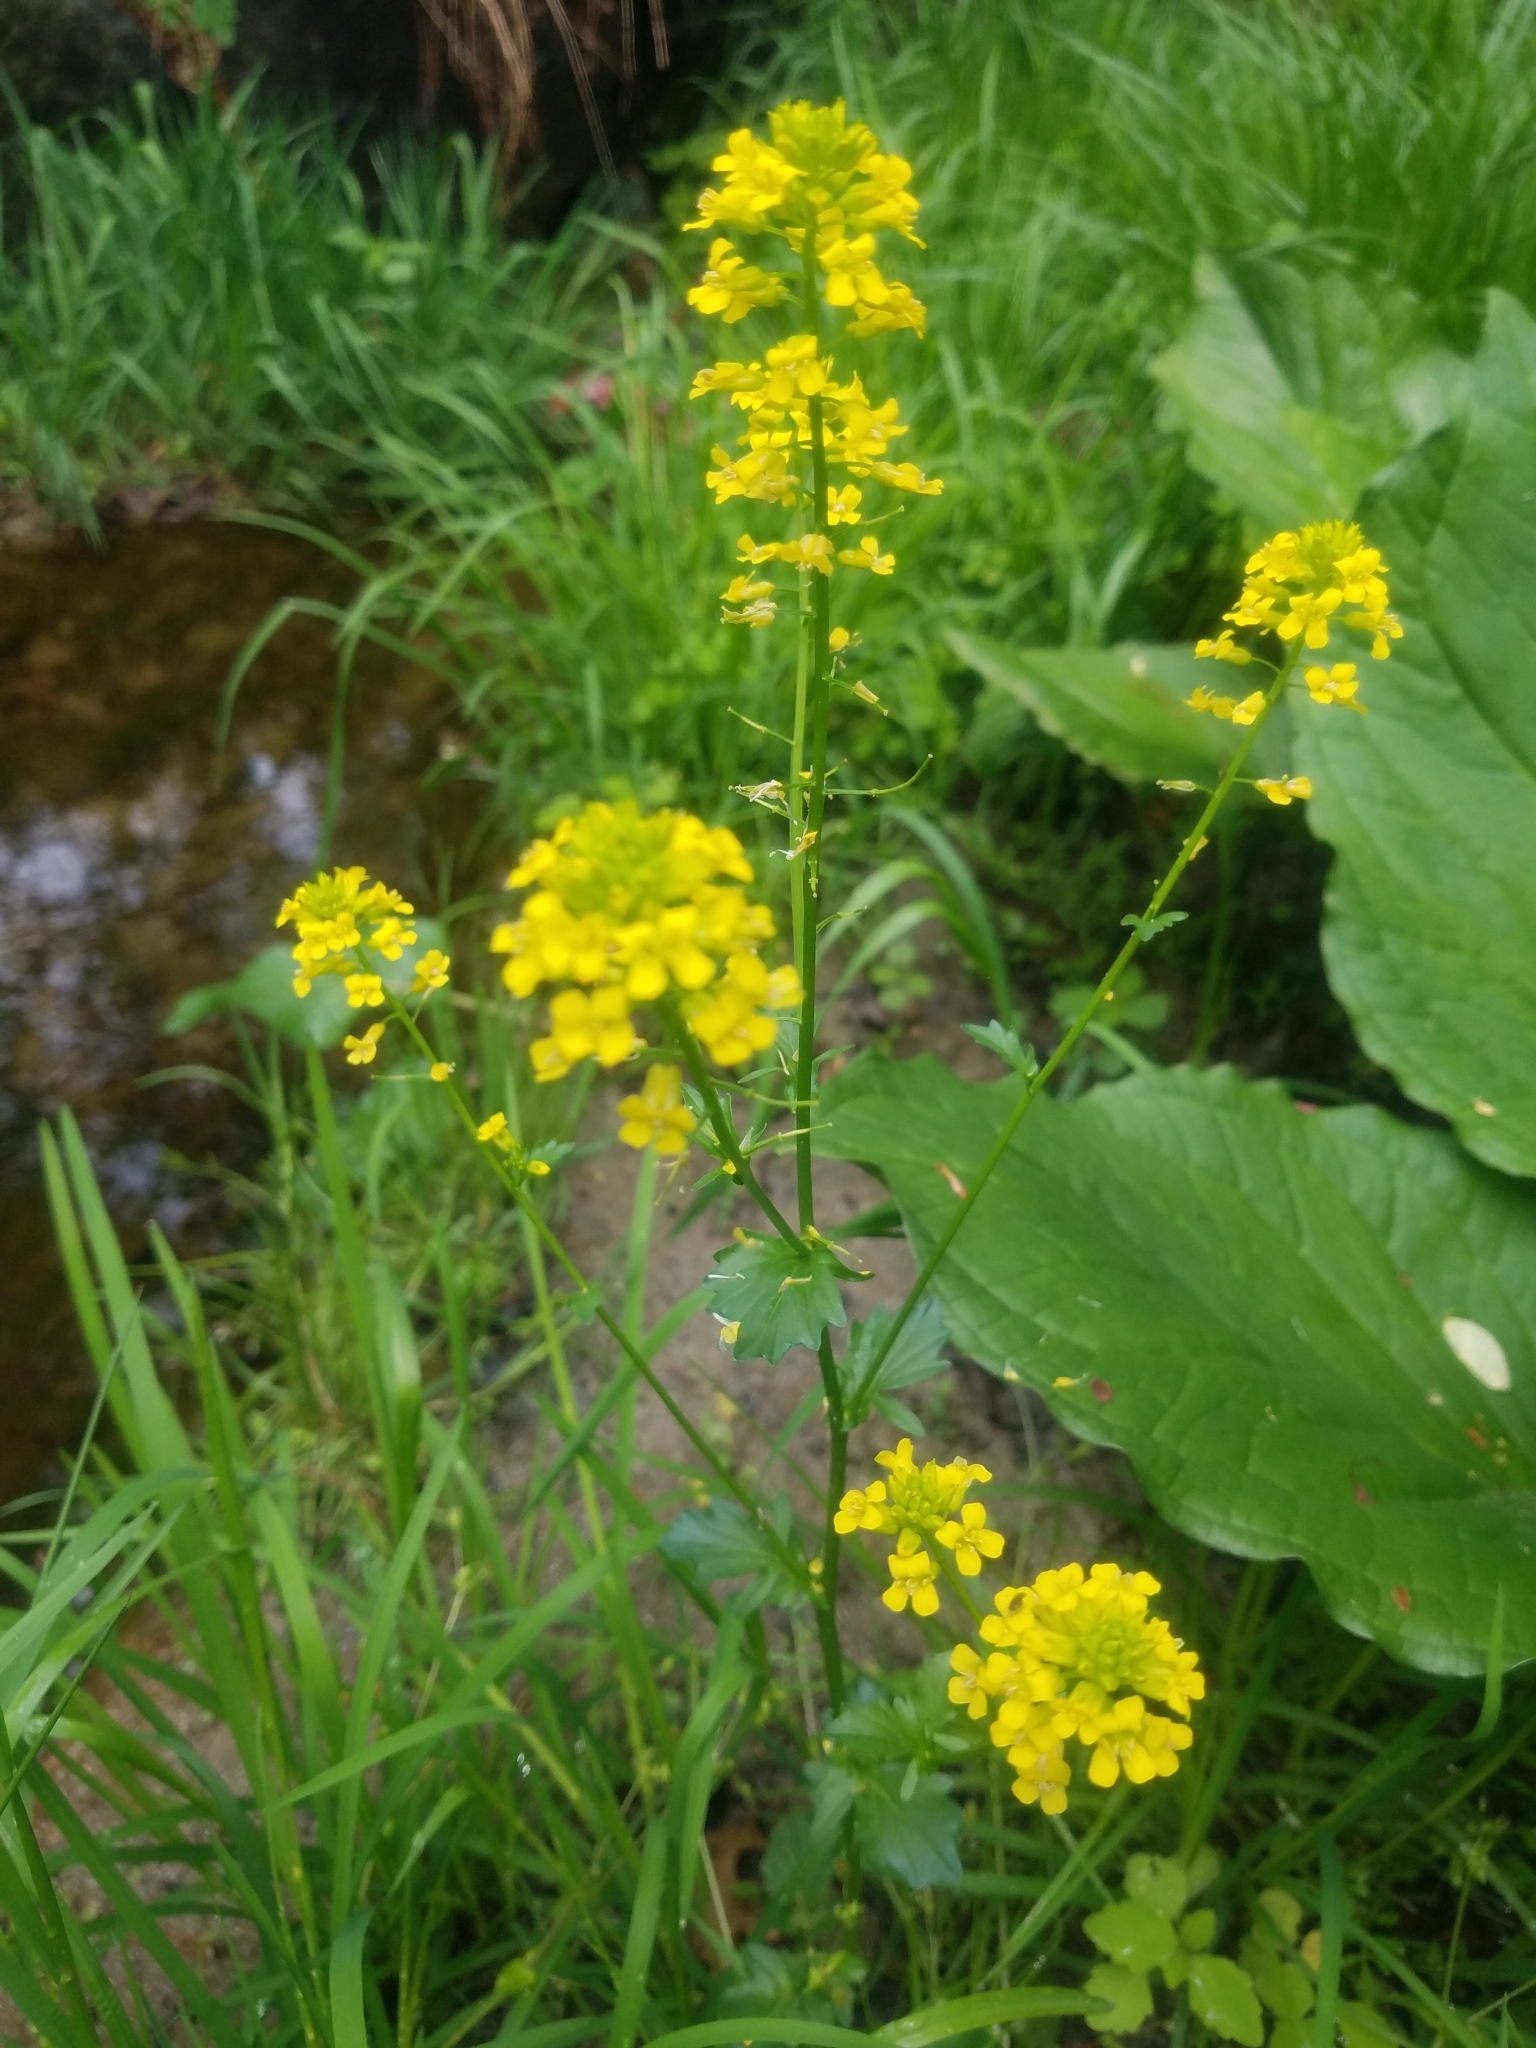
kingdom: Plantae
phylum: Tracheophyta
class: Magnoliopsida
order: Brassicales
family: Brassicaceae
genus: Barbarea
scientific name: Barbarea vulgaris
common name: Cressy-greens
